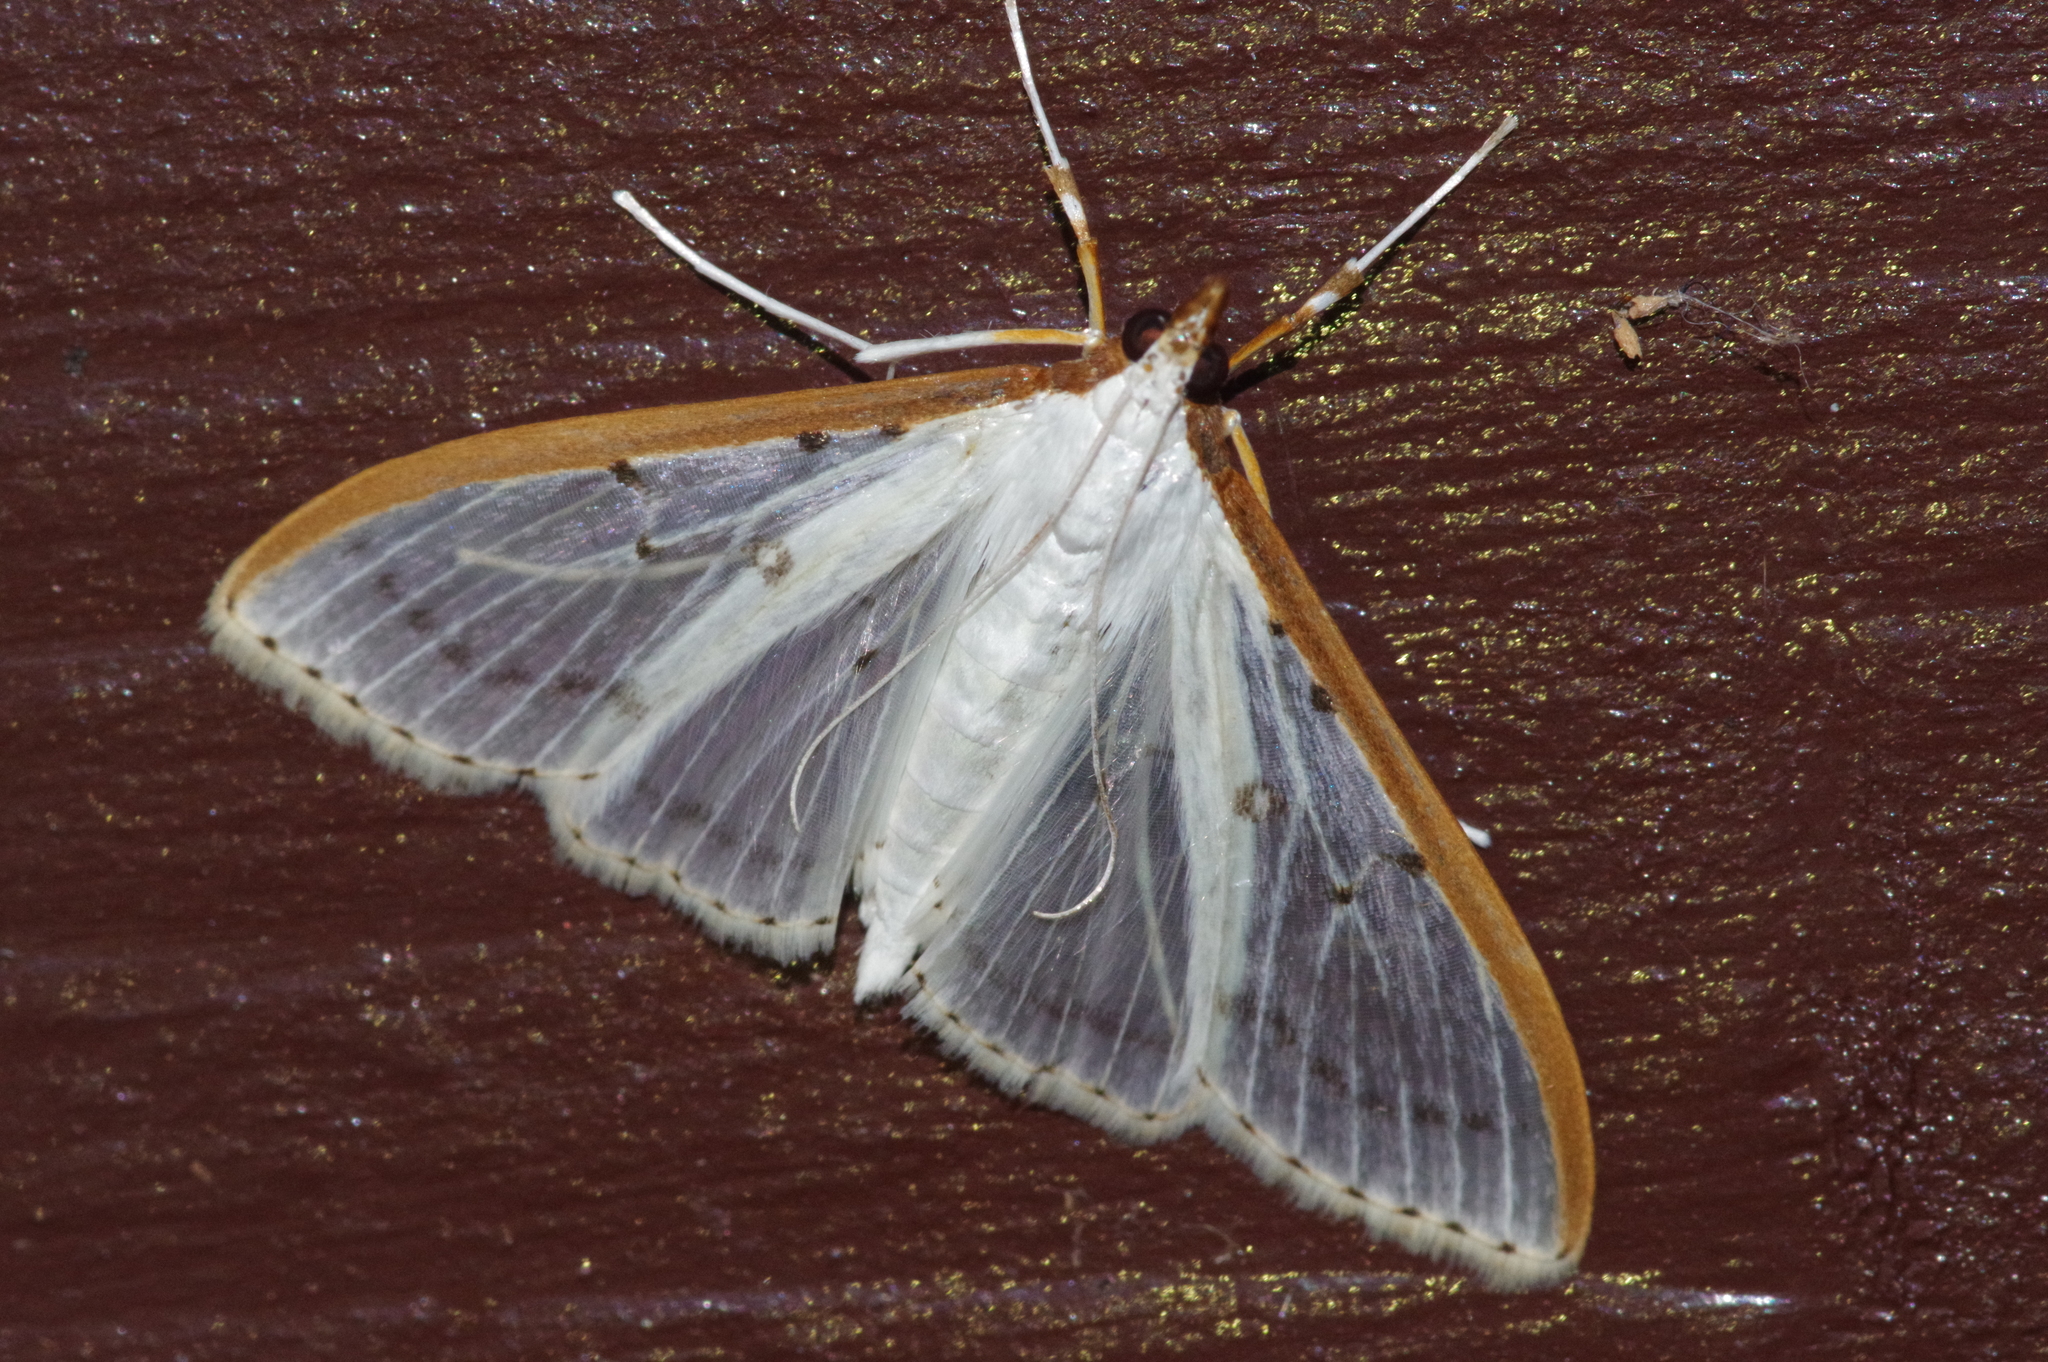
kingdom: Animalia
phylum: Arthropoda
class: Insecta
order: Lepidoptera
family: Crambidae
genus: Palpita
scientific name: Palpita nigropunctalis
